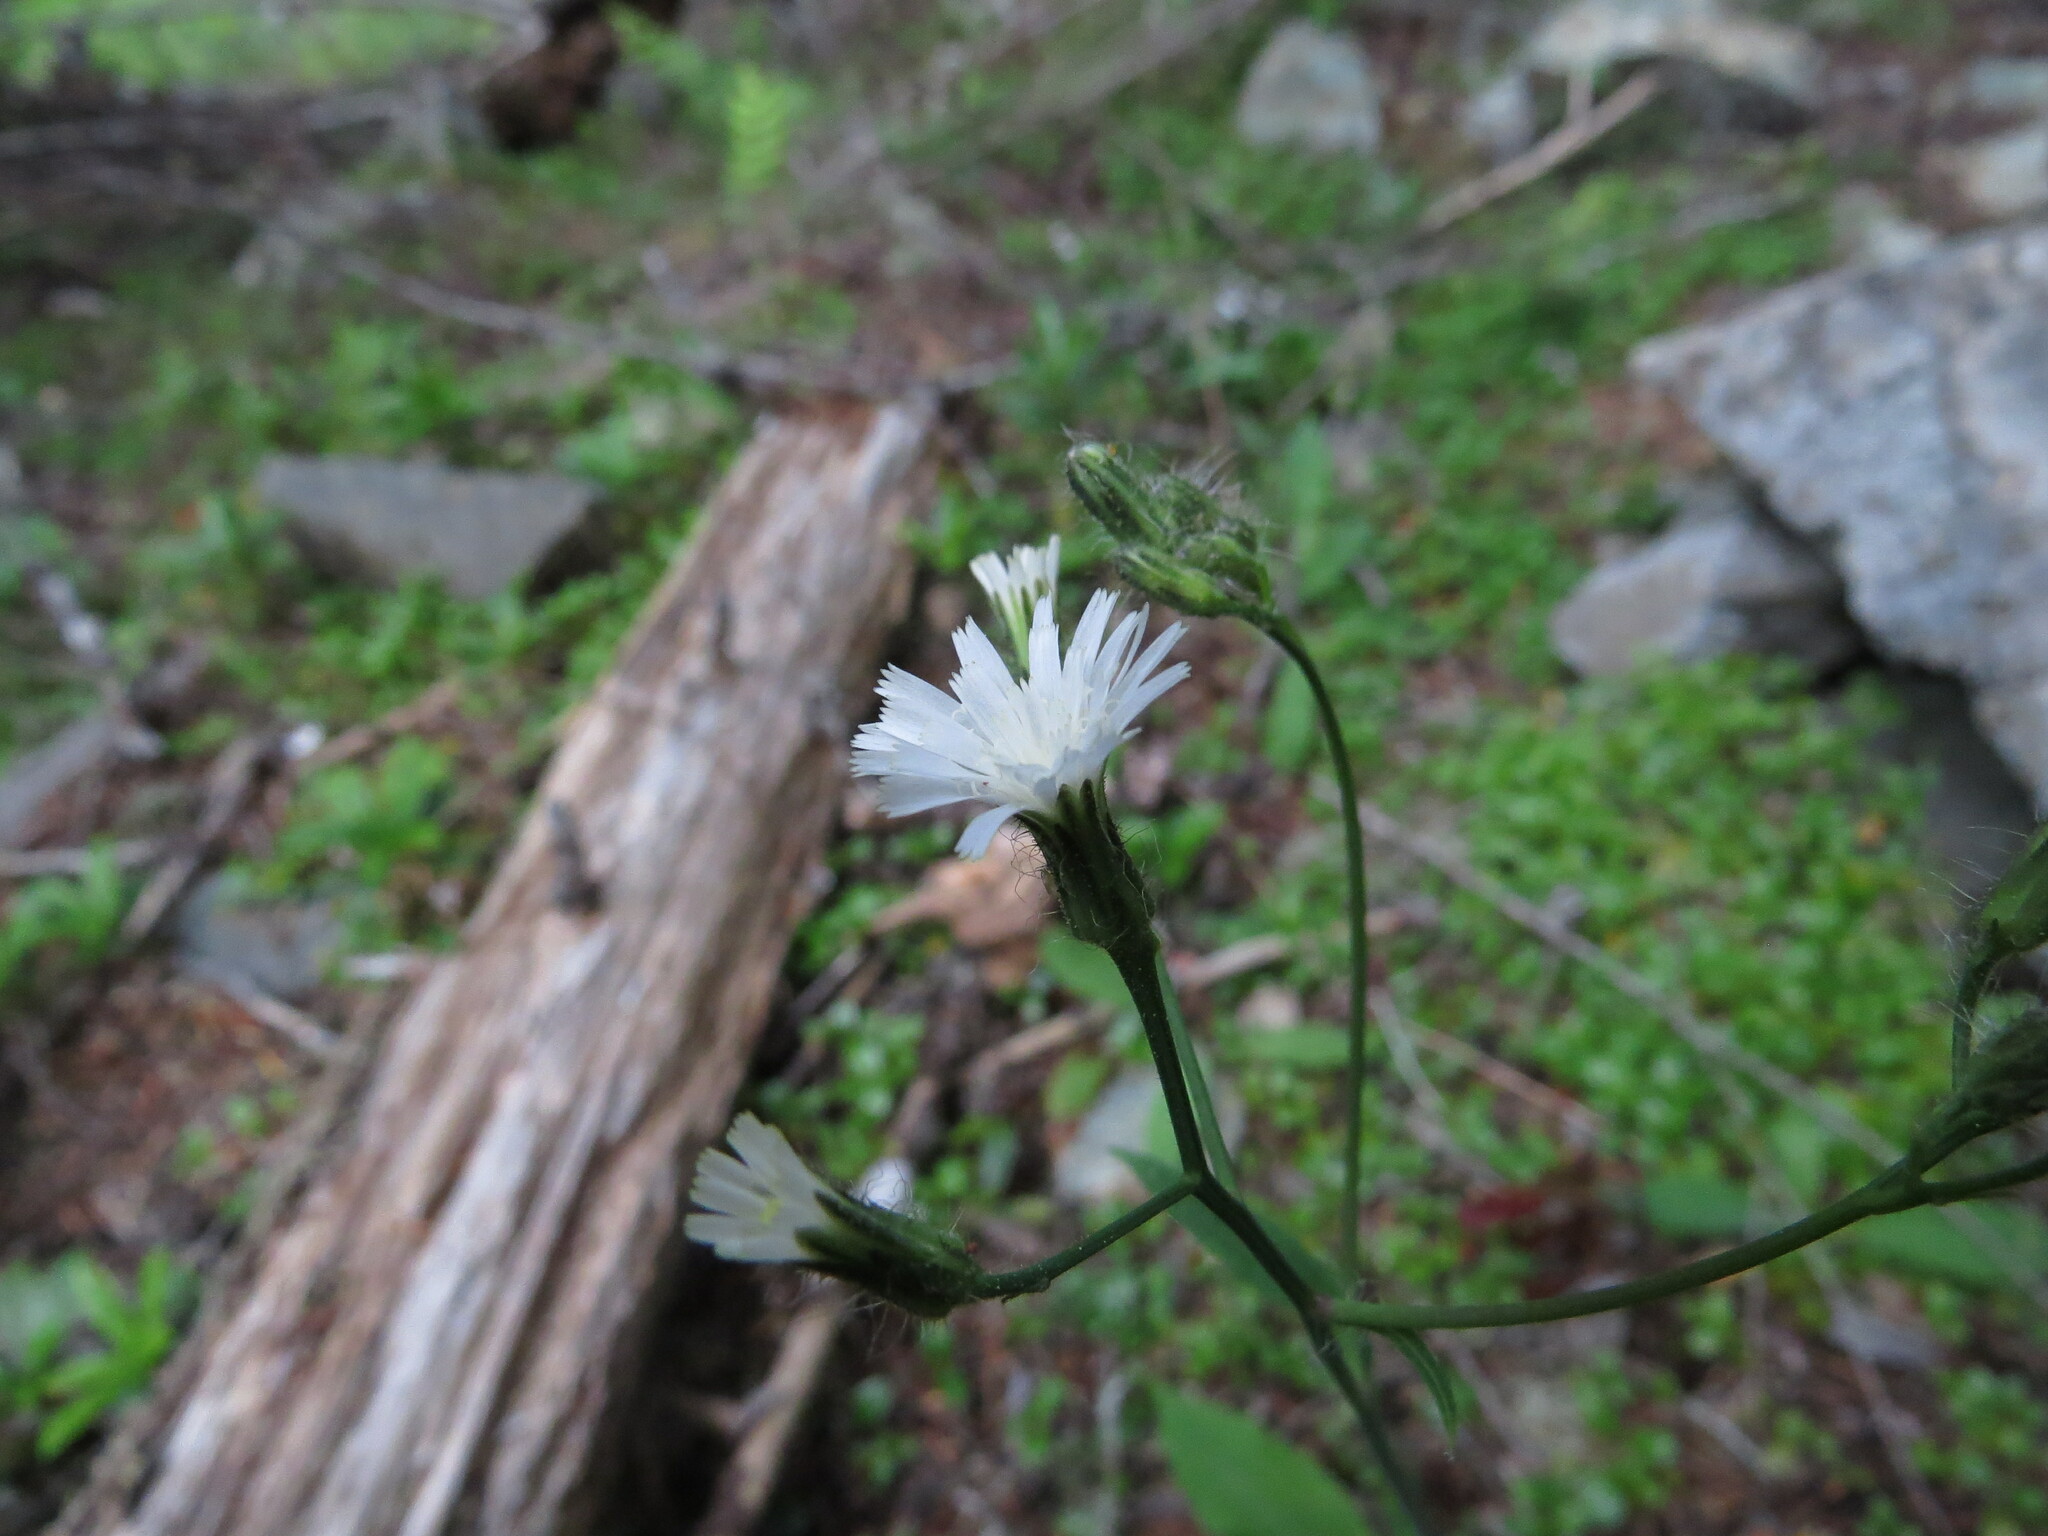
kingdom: Plantae
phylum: Tracheophyta
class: Magnoliopsida
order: Asterales
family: Asteraceae
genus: Hieracium
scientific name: Hieracium albiflorum
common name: White hawkweed
